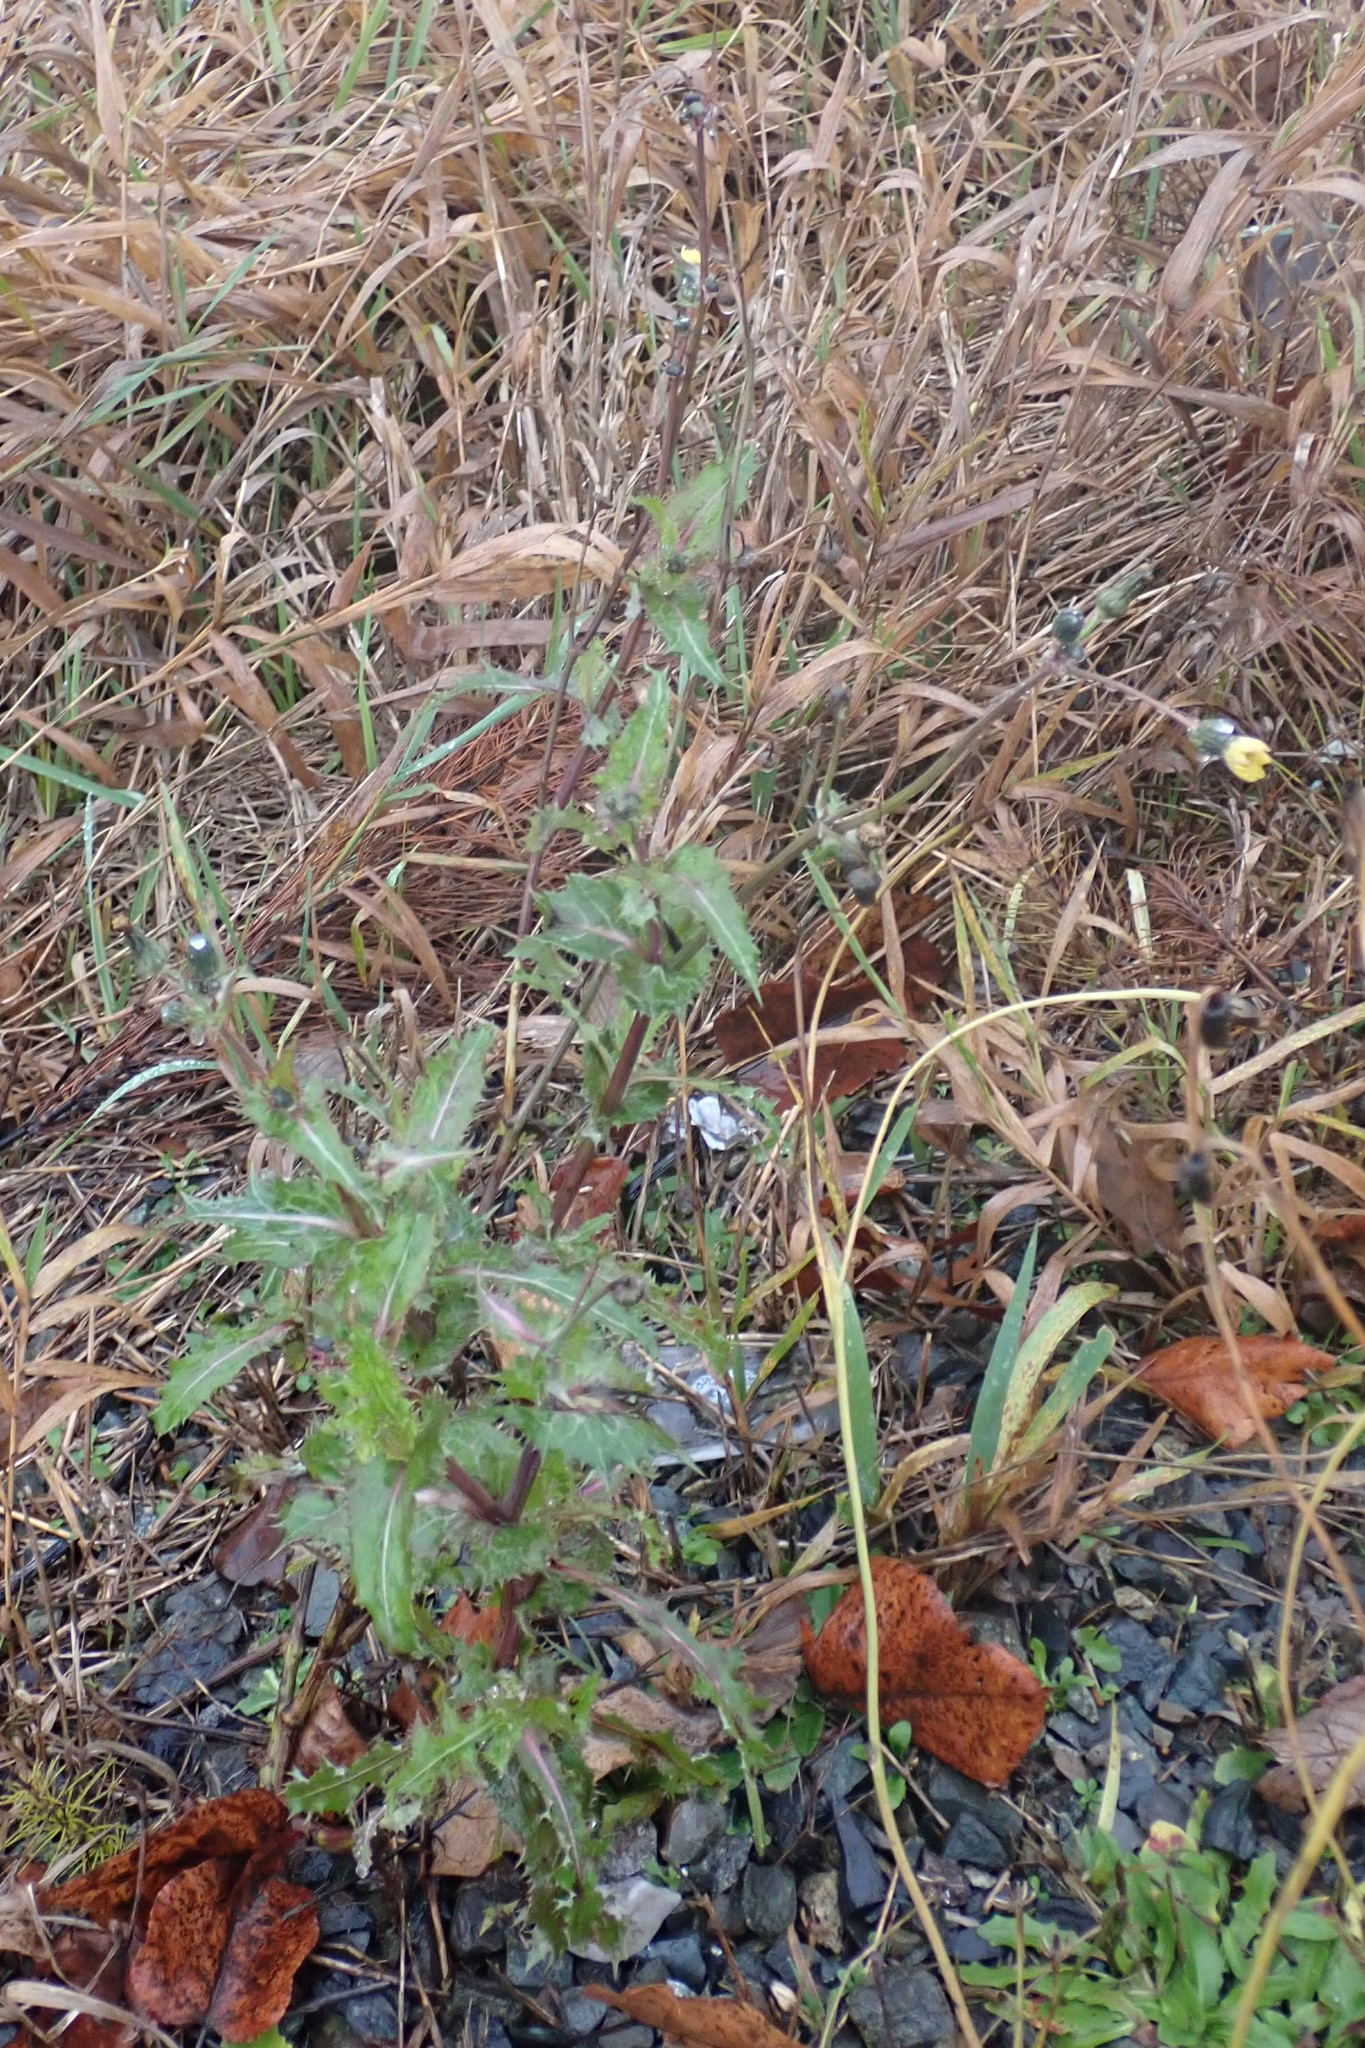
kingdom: Plantae
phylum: Tracheophyta
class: Magnoliopsida
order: Asterales
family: Asteraceae
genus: Sonchus
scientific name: Sonchus asper
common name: Prickly sow-thistle
